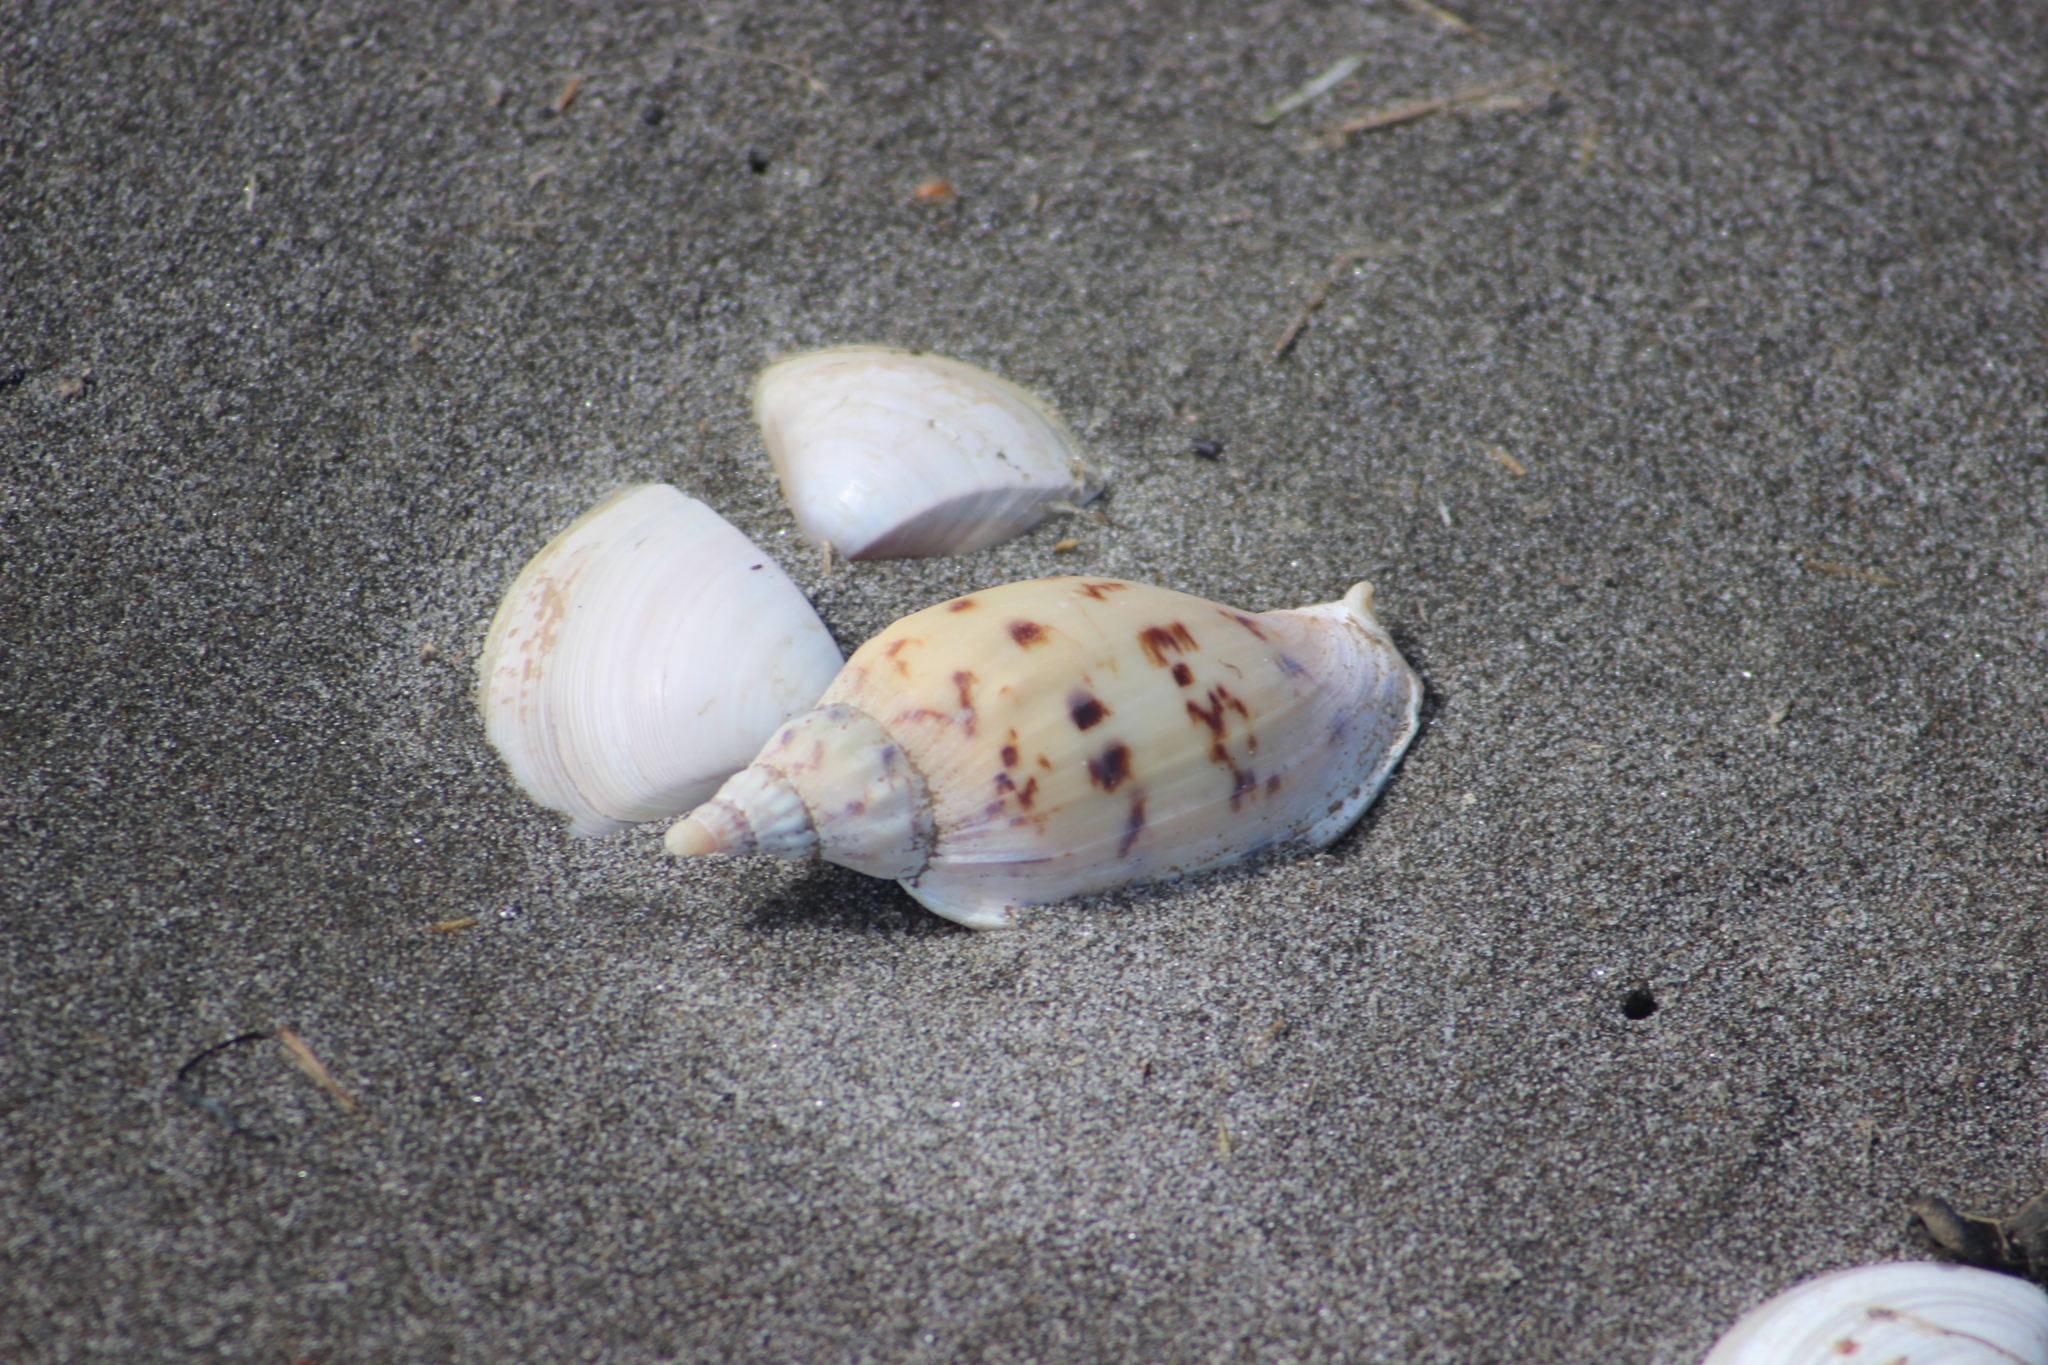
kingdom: Animalia
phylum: Mollusca
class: Gastropoda
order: Neogastropoda
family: Volutidae
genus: Alcithoe
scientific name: Alcithoe arabica
